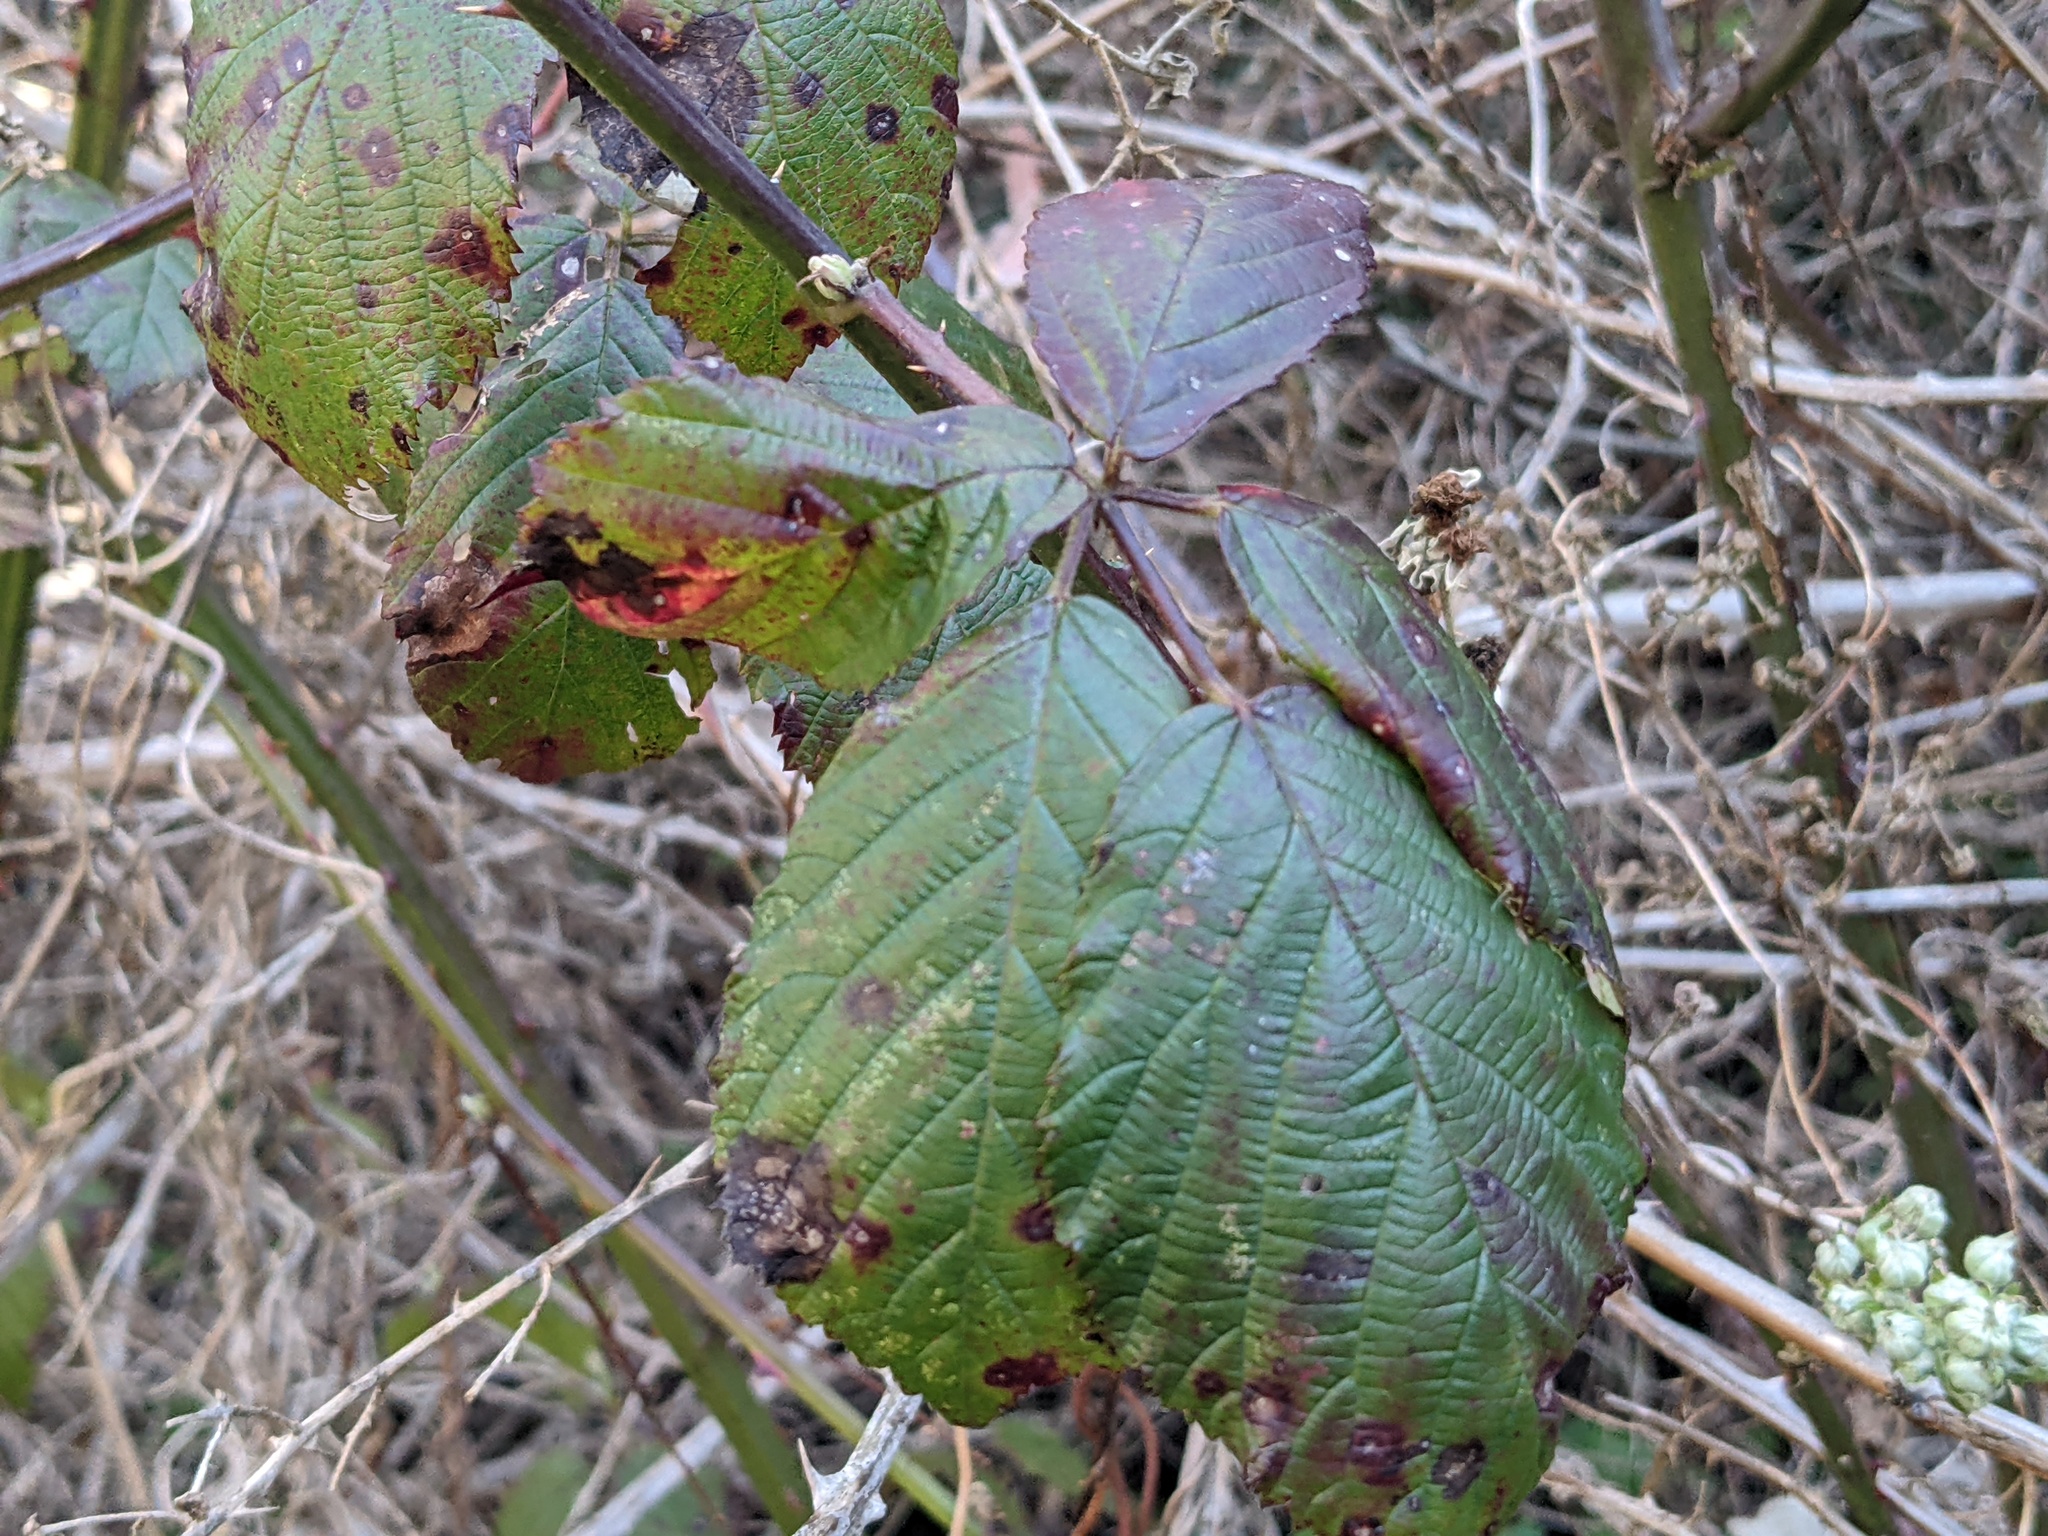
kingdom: Plantae
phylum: Tracheophyta
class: Magnoliopsida
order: Rosales
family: Rosaceae
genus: Rubus
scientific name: Rubus armeniacus
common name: Himalayan blackberry
